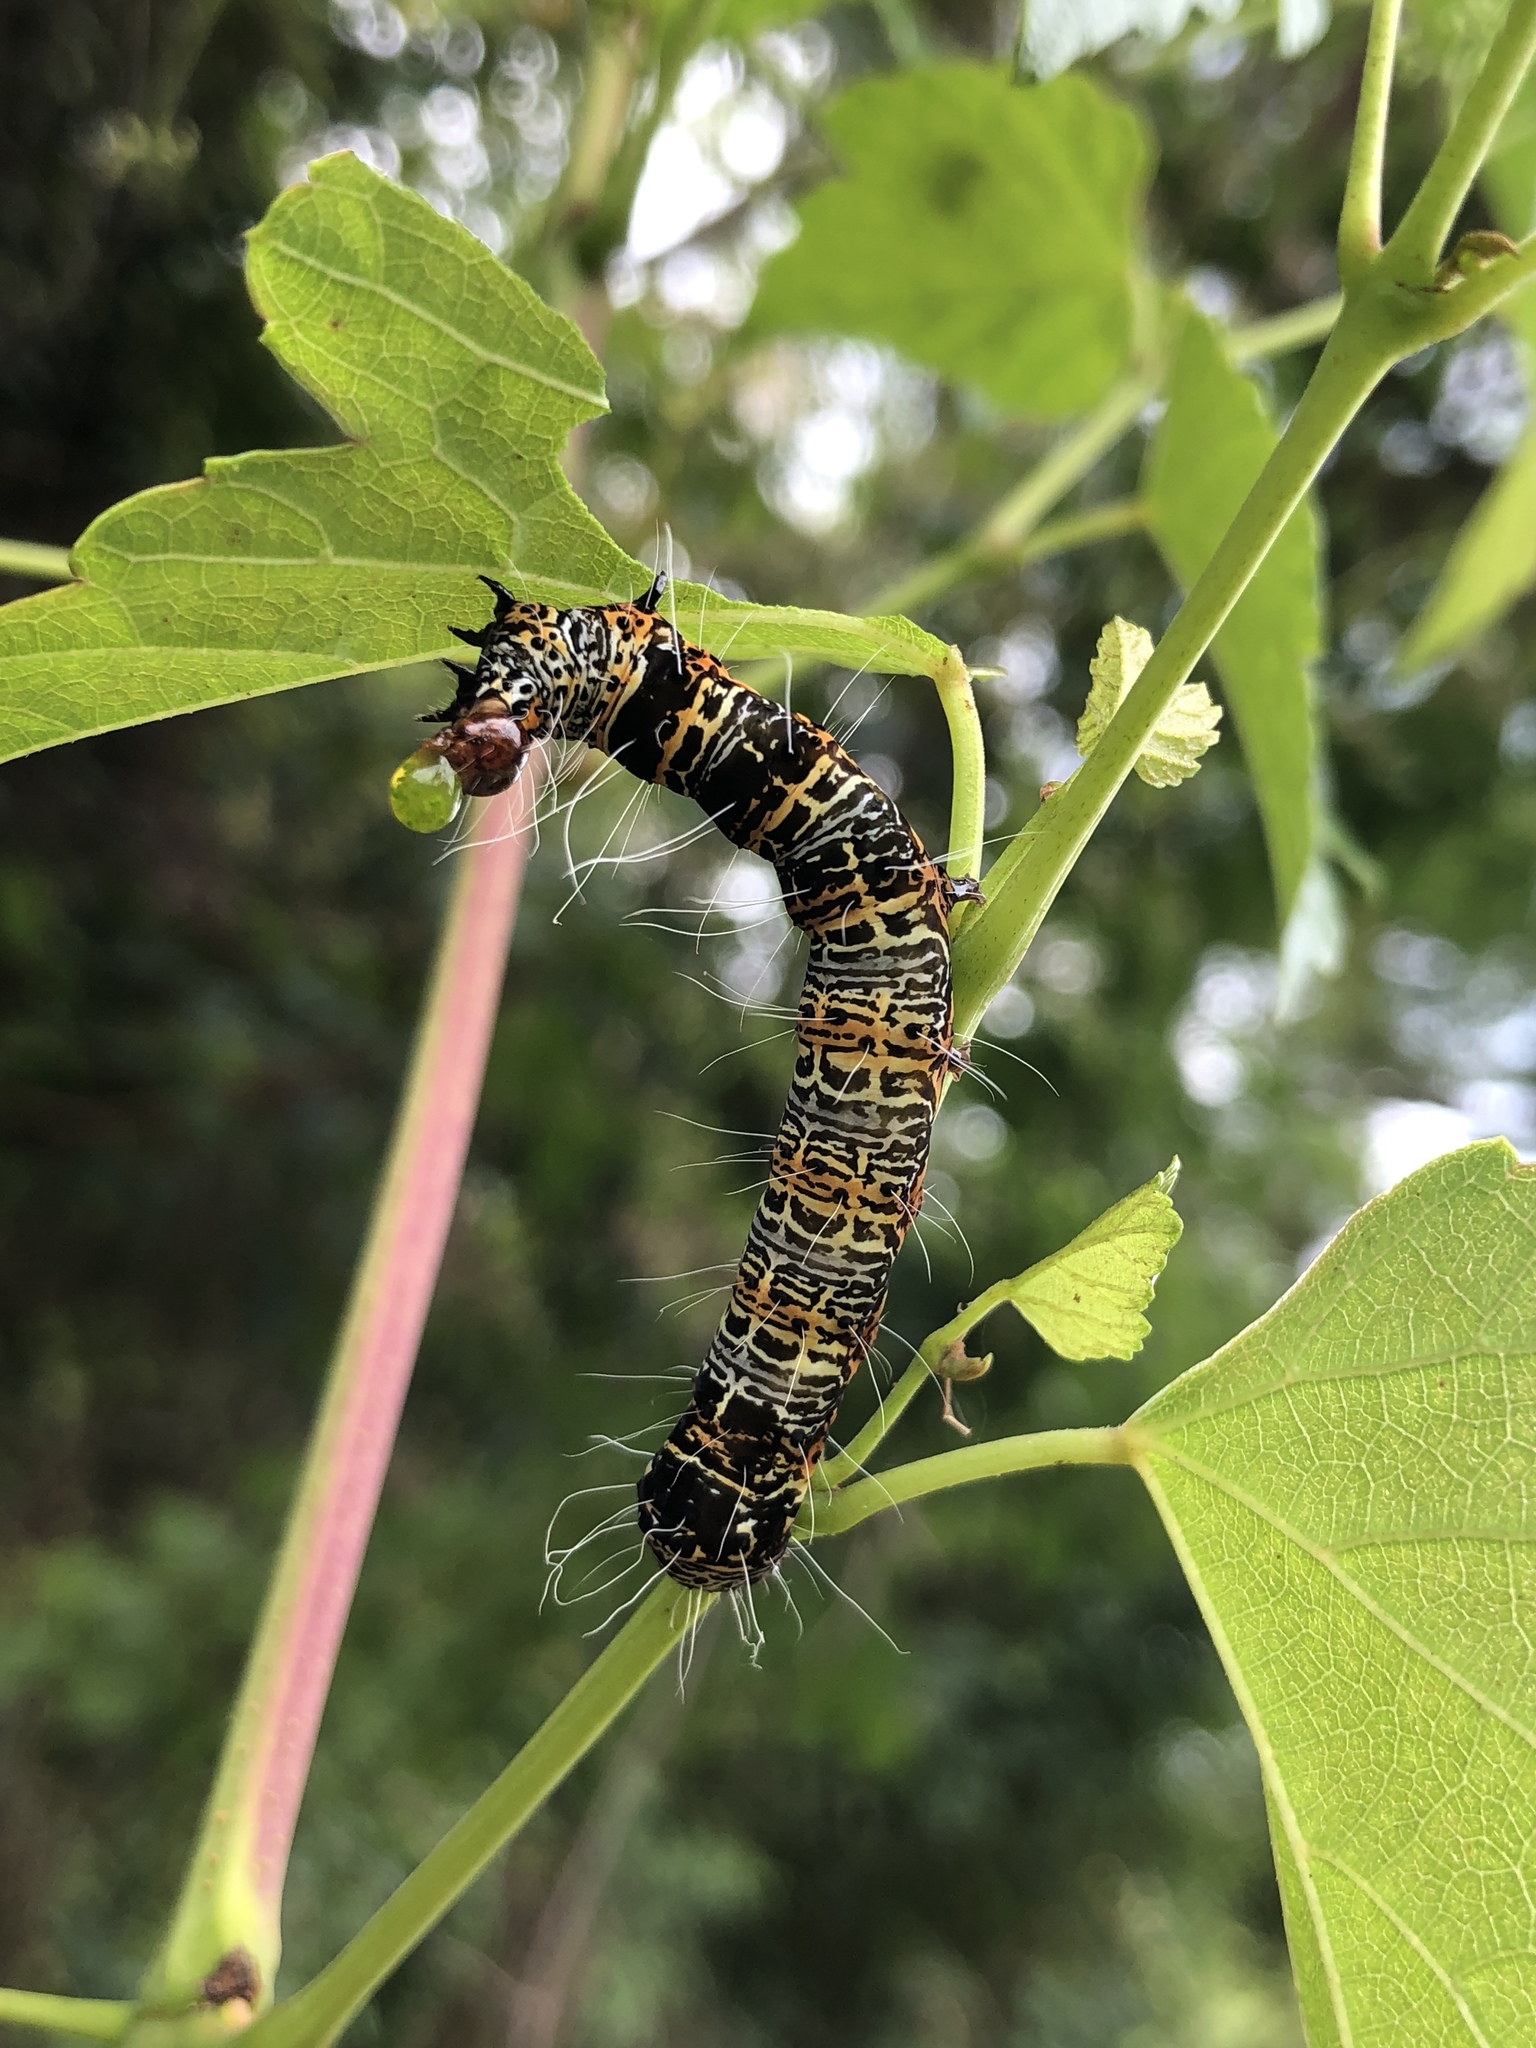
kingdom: Animalia
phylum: Arthropoda
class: Insecta
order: Lepidoptera
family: Noctuidae
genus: Mimeusemia
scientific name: Mimeusemia vilemani
